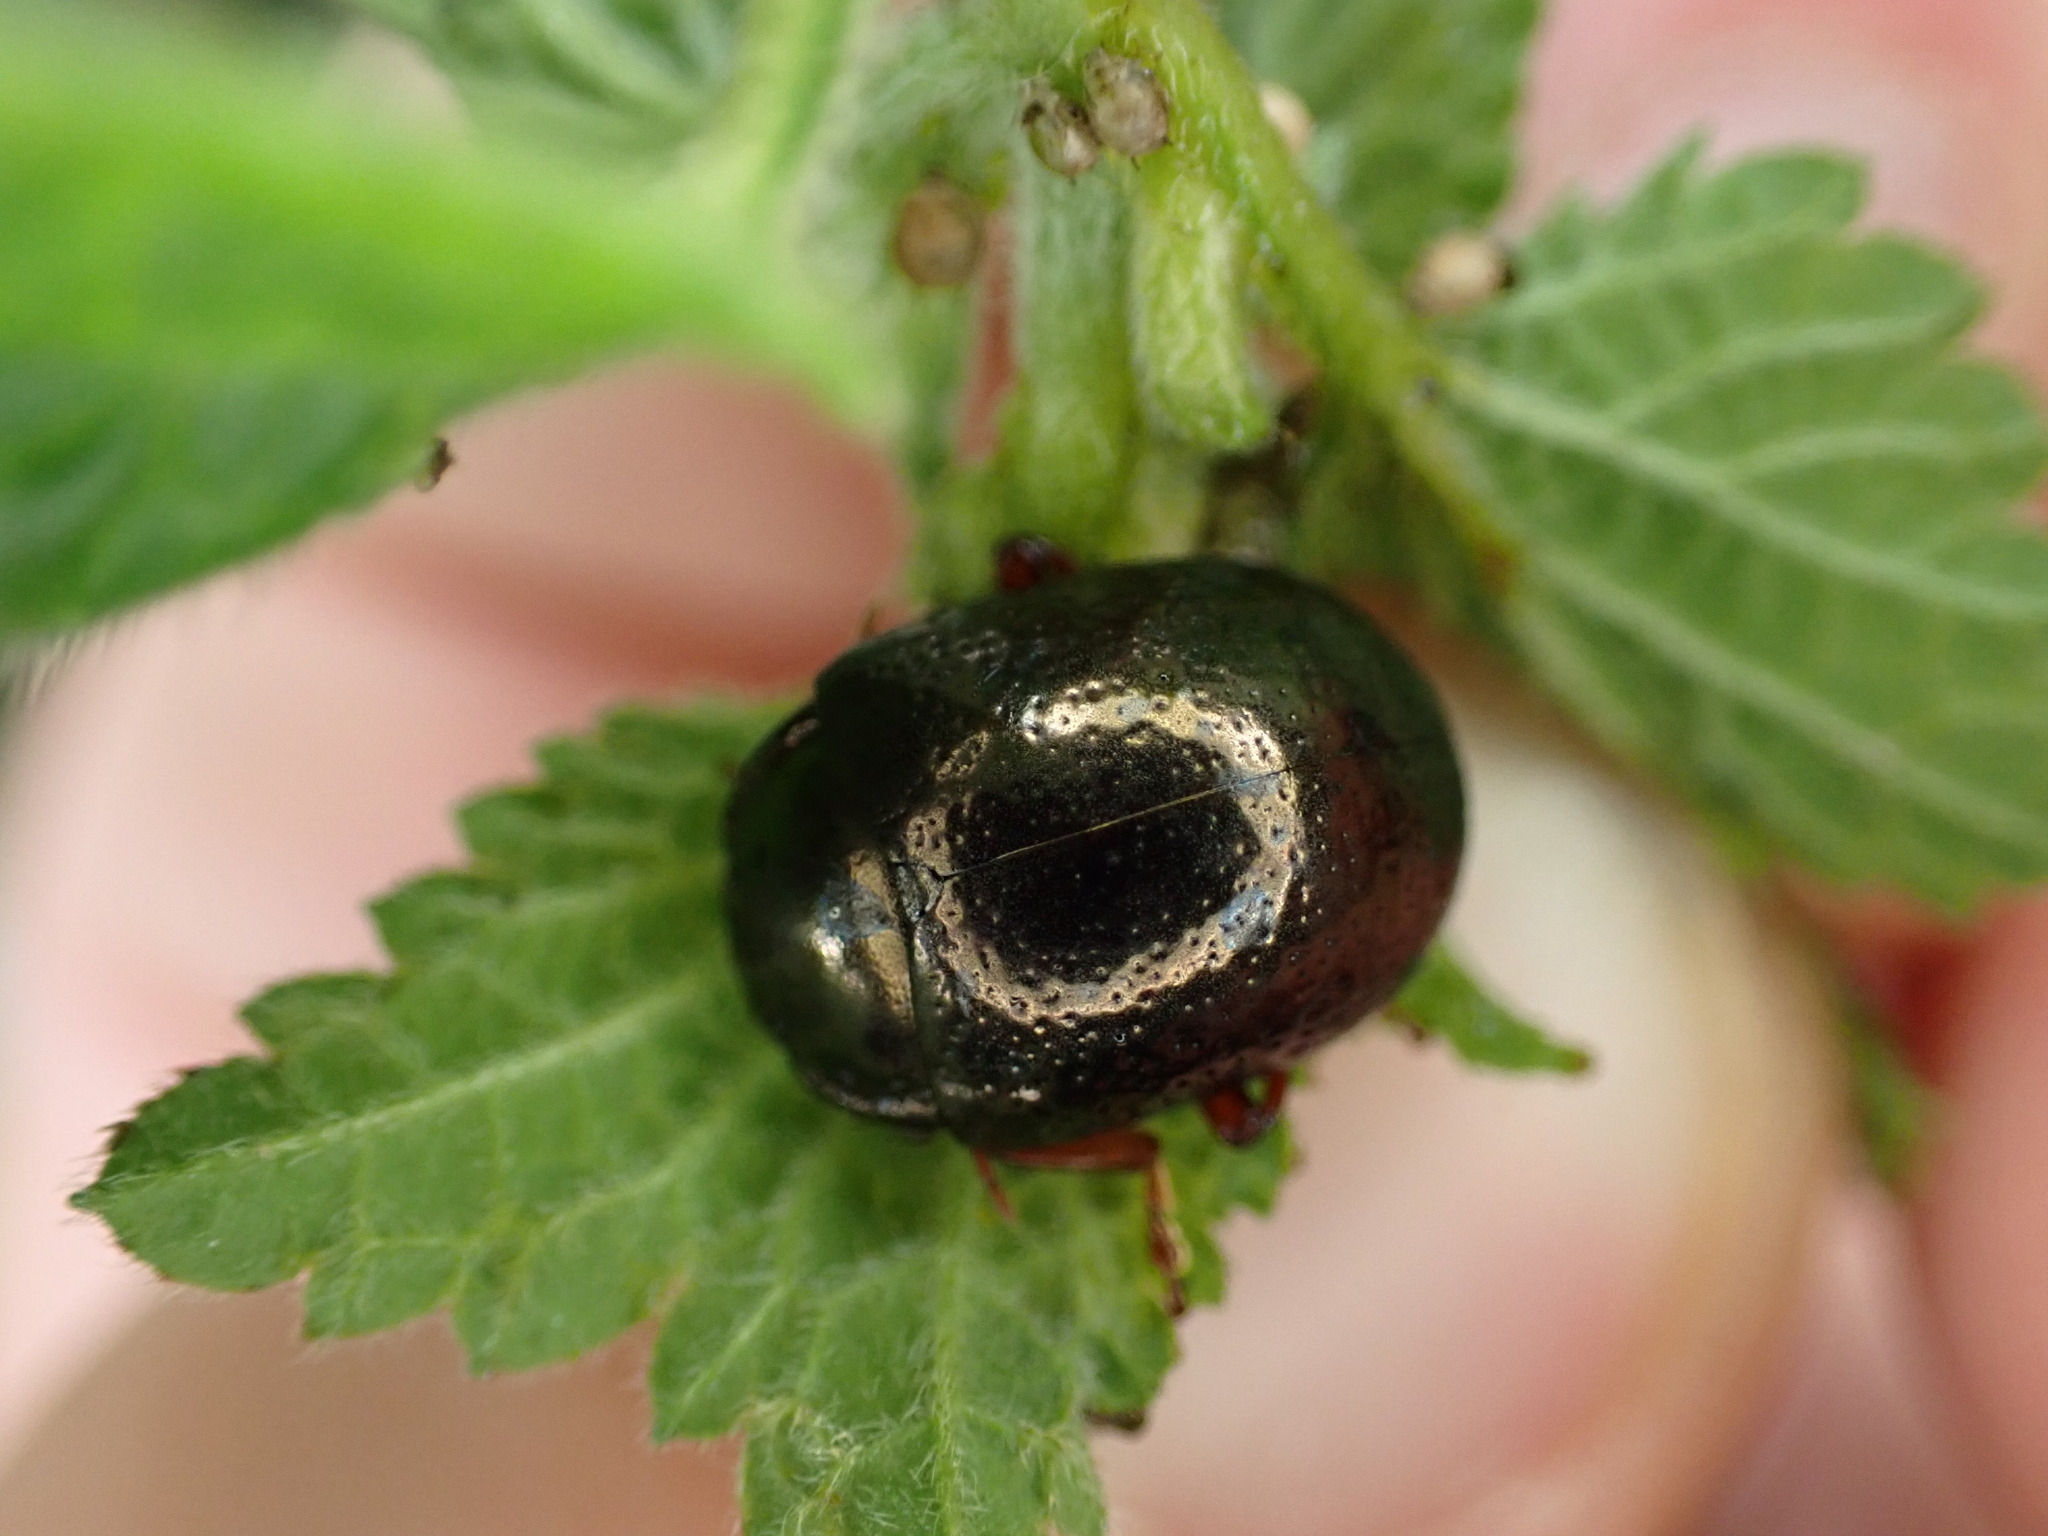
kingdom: Animalia
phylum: Arthropoda
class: Insecta
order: Coleoptera
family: Chrysomelidae
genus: Chrysolina
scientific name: Chrysolina bankii
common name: Leaf beetle
